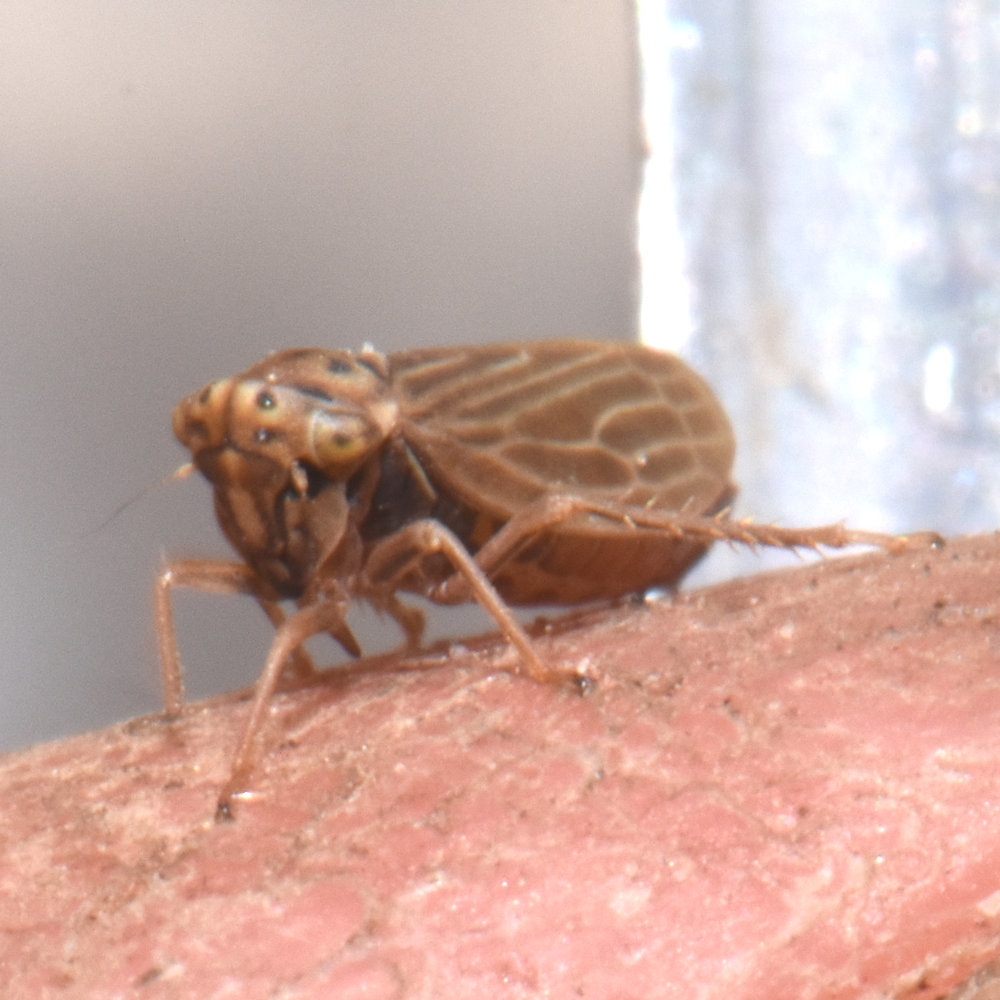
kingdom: Animalia
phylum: Arthropoda
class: Insecta
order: Hemiptera
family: Cicadellidae
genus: Agalliota
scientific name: Agalliota quadripunctata
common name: The four-spotted clover leafhopper
